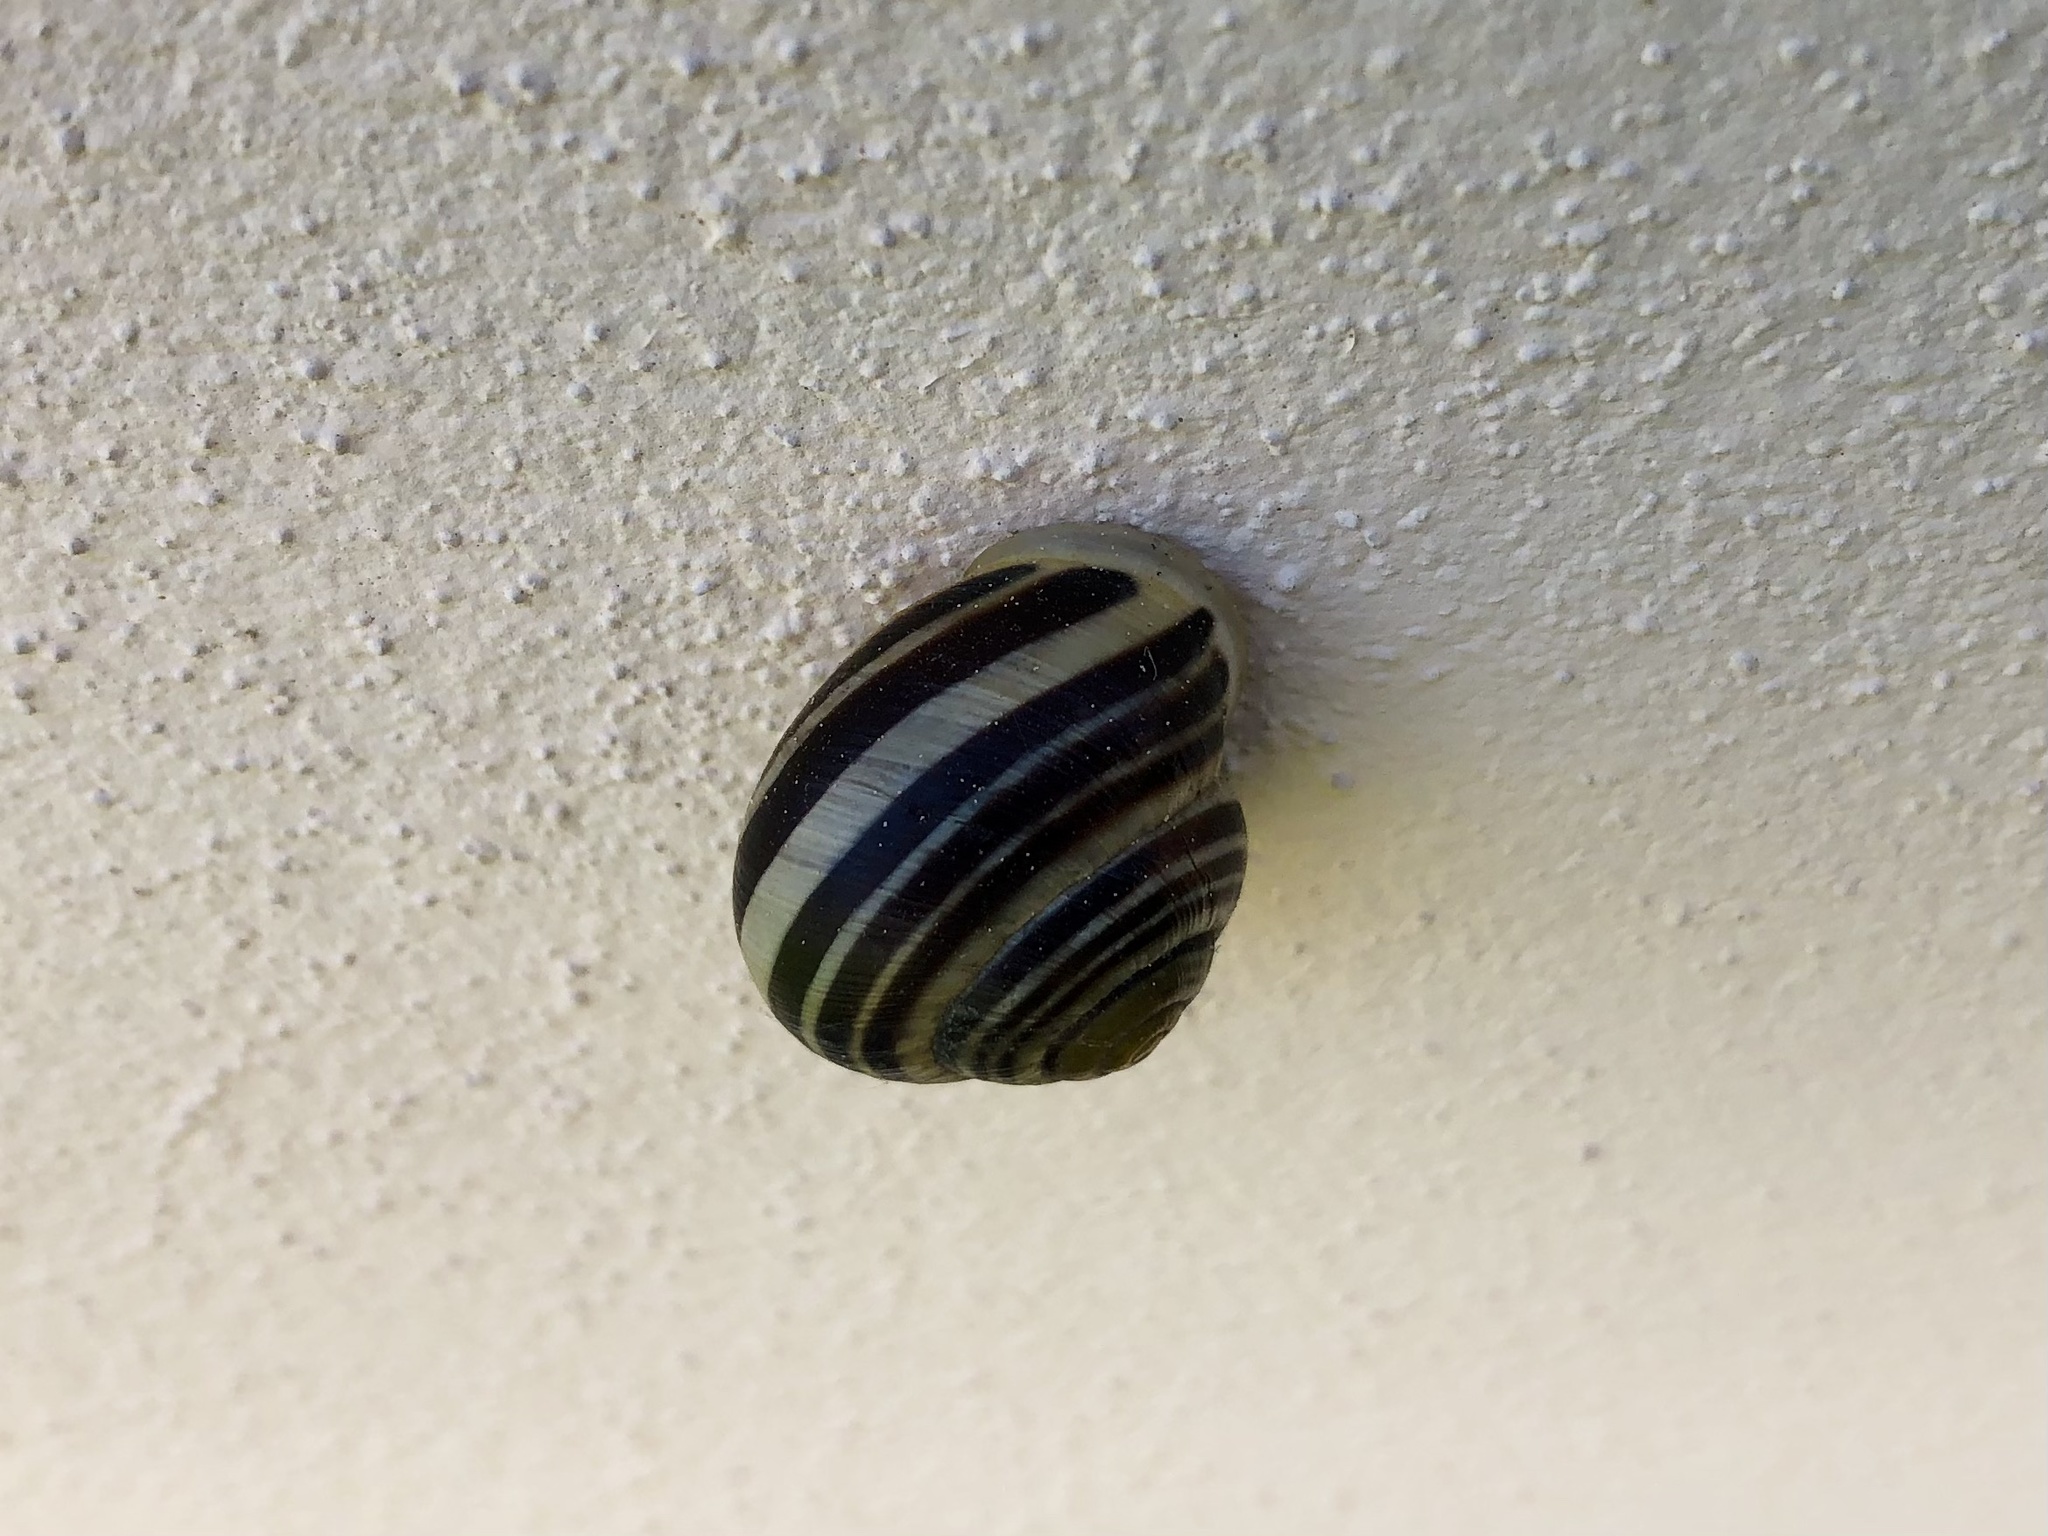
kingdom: Animalia
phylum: Mollusca
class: Gastropoda
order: Stylommatophora
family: Helicidae
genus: Cepaea
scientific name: Cepaea hortensis
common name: White-lip gardensnail
